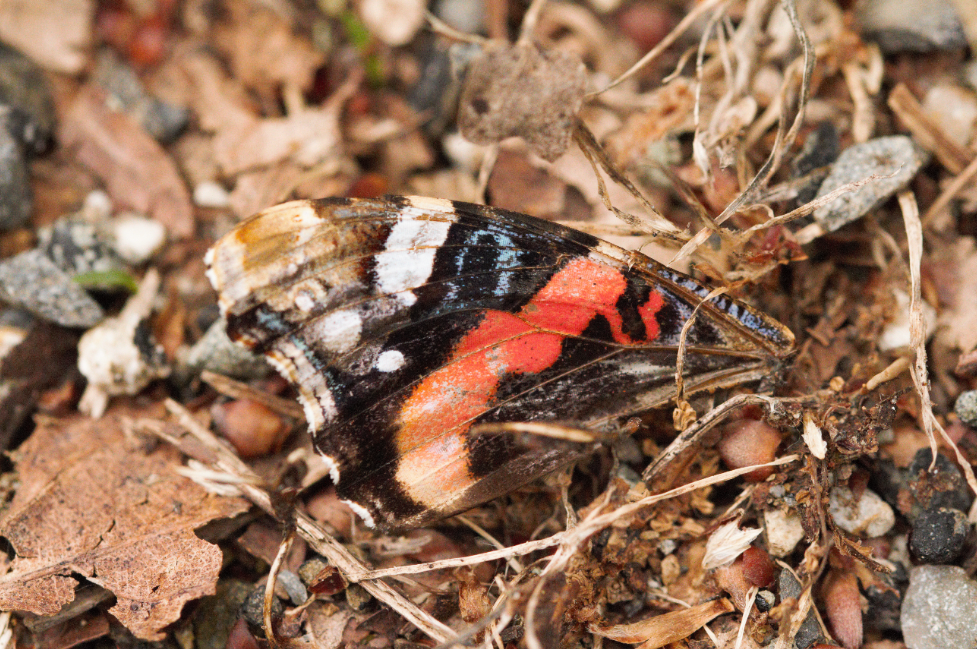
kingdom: Animalia
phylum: Arthropoda
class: Insecta
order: Lepidoptera
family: Nymphalidae
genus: Vanessa
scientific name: Vanessa atalanta
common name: Red admiral
